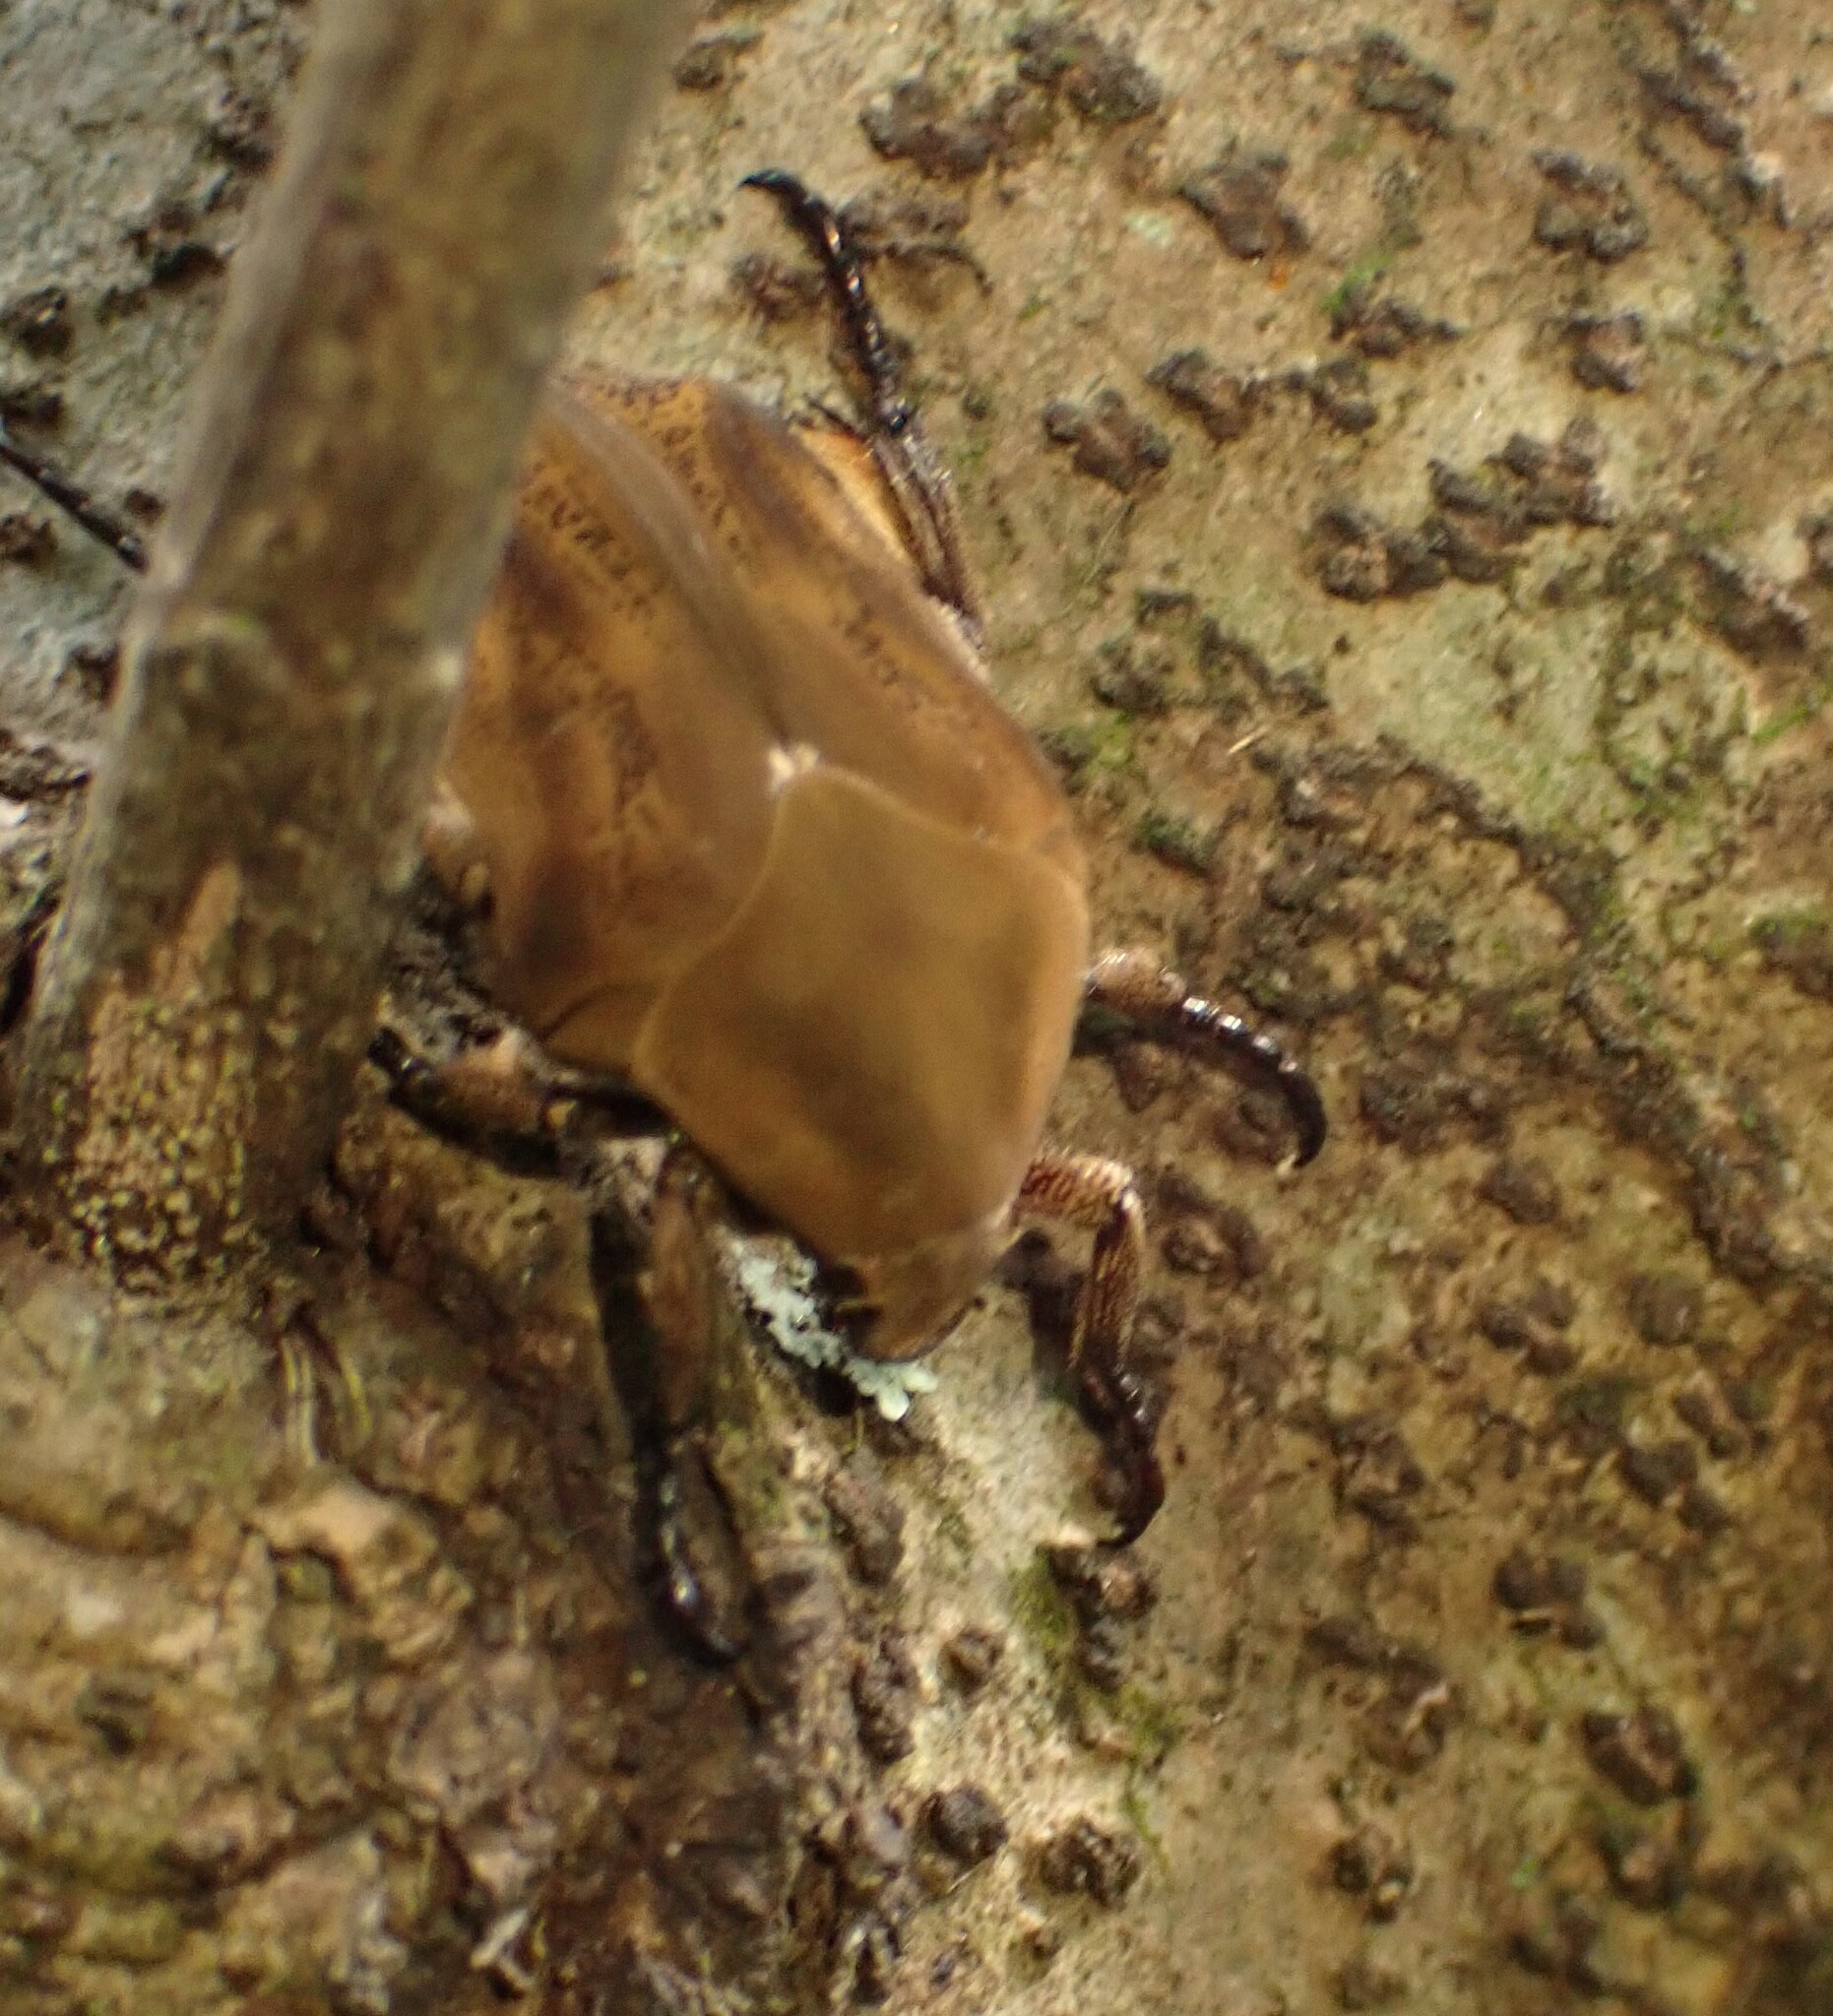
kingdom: Animalia
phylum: Arthropoda
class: Insecta
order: Coleoptera
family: Scarabaeidae
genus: Hoplopyga
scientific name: Hoplopyga brasiliensis
